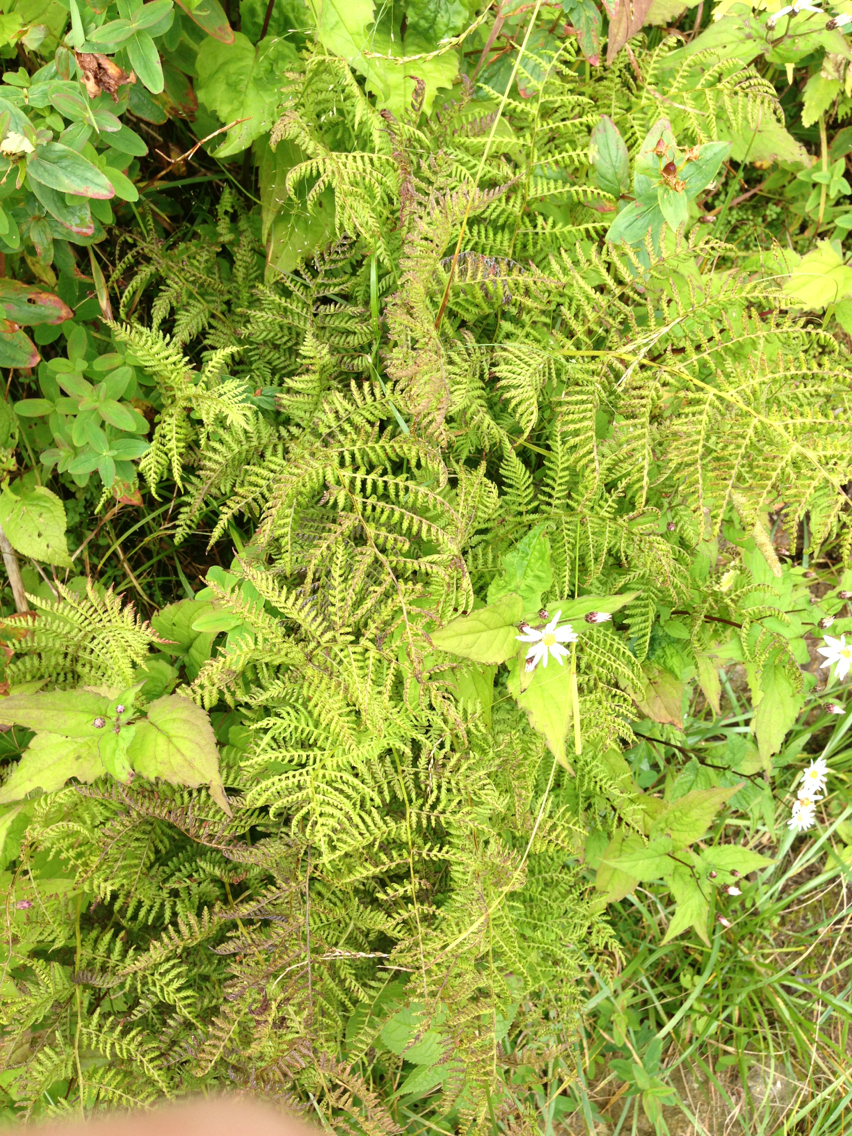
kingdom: Plantae
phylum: Tracheophyta
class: Polypodiopsida
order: Polypodiales
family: Dennstaedtiaceae
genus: Sitobolium
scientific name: Sitobolium punctilobum
